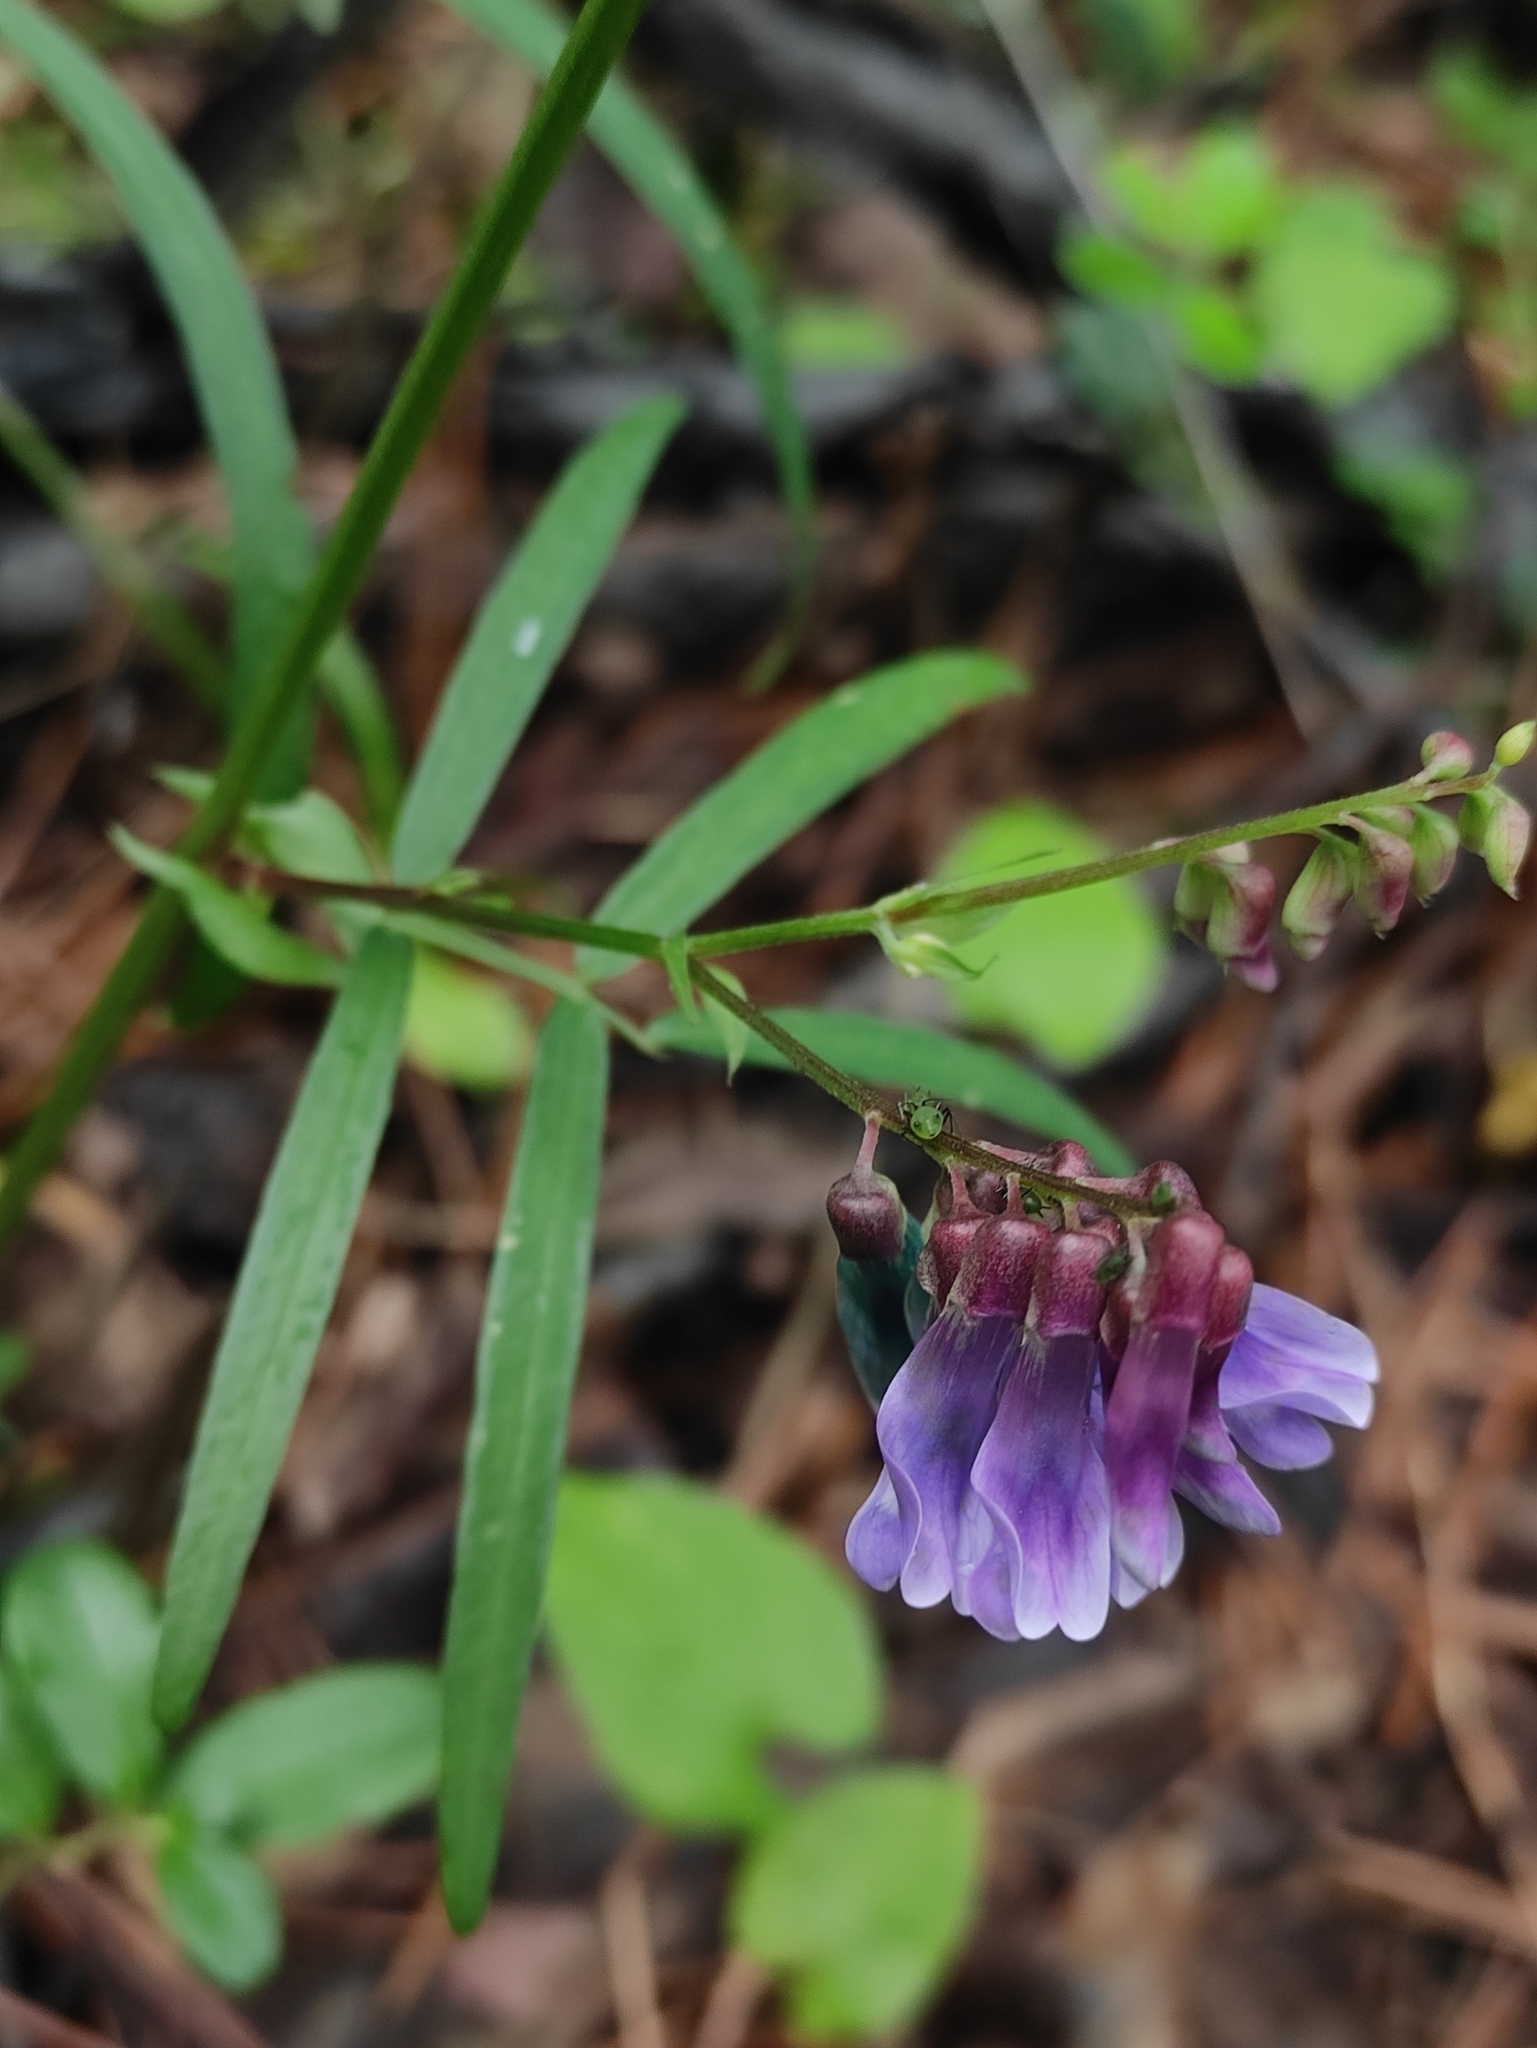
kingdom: Plantae
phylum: Tracheophyta
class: Magnoliopsida
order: Fabales
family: Fabaceae
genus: Vicia
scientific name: Vicia venosa
